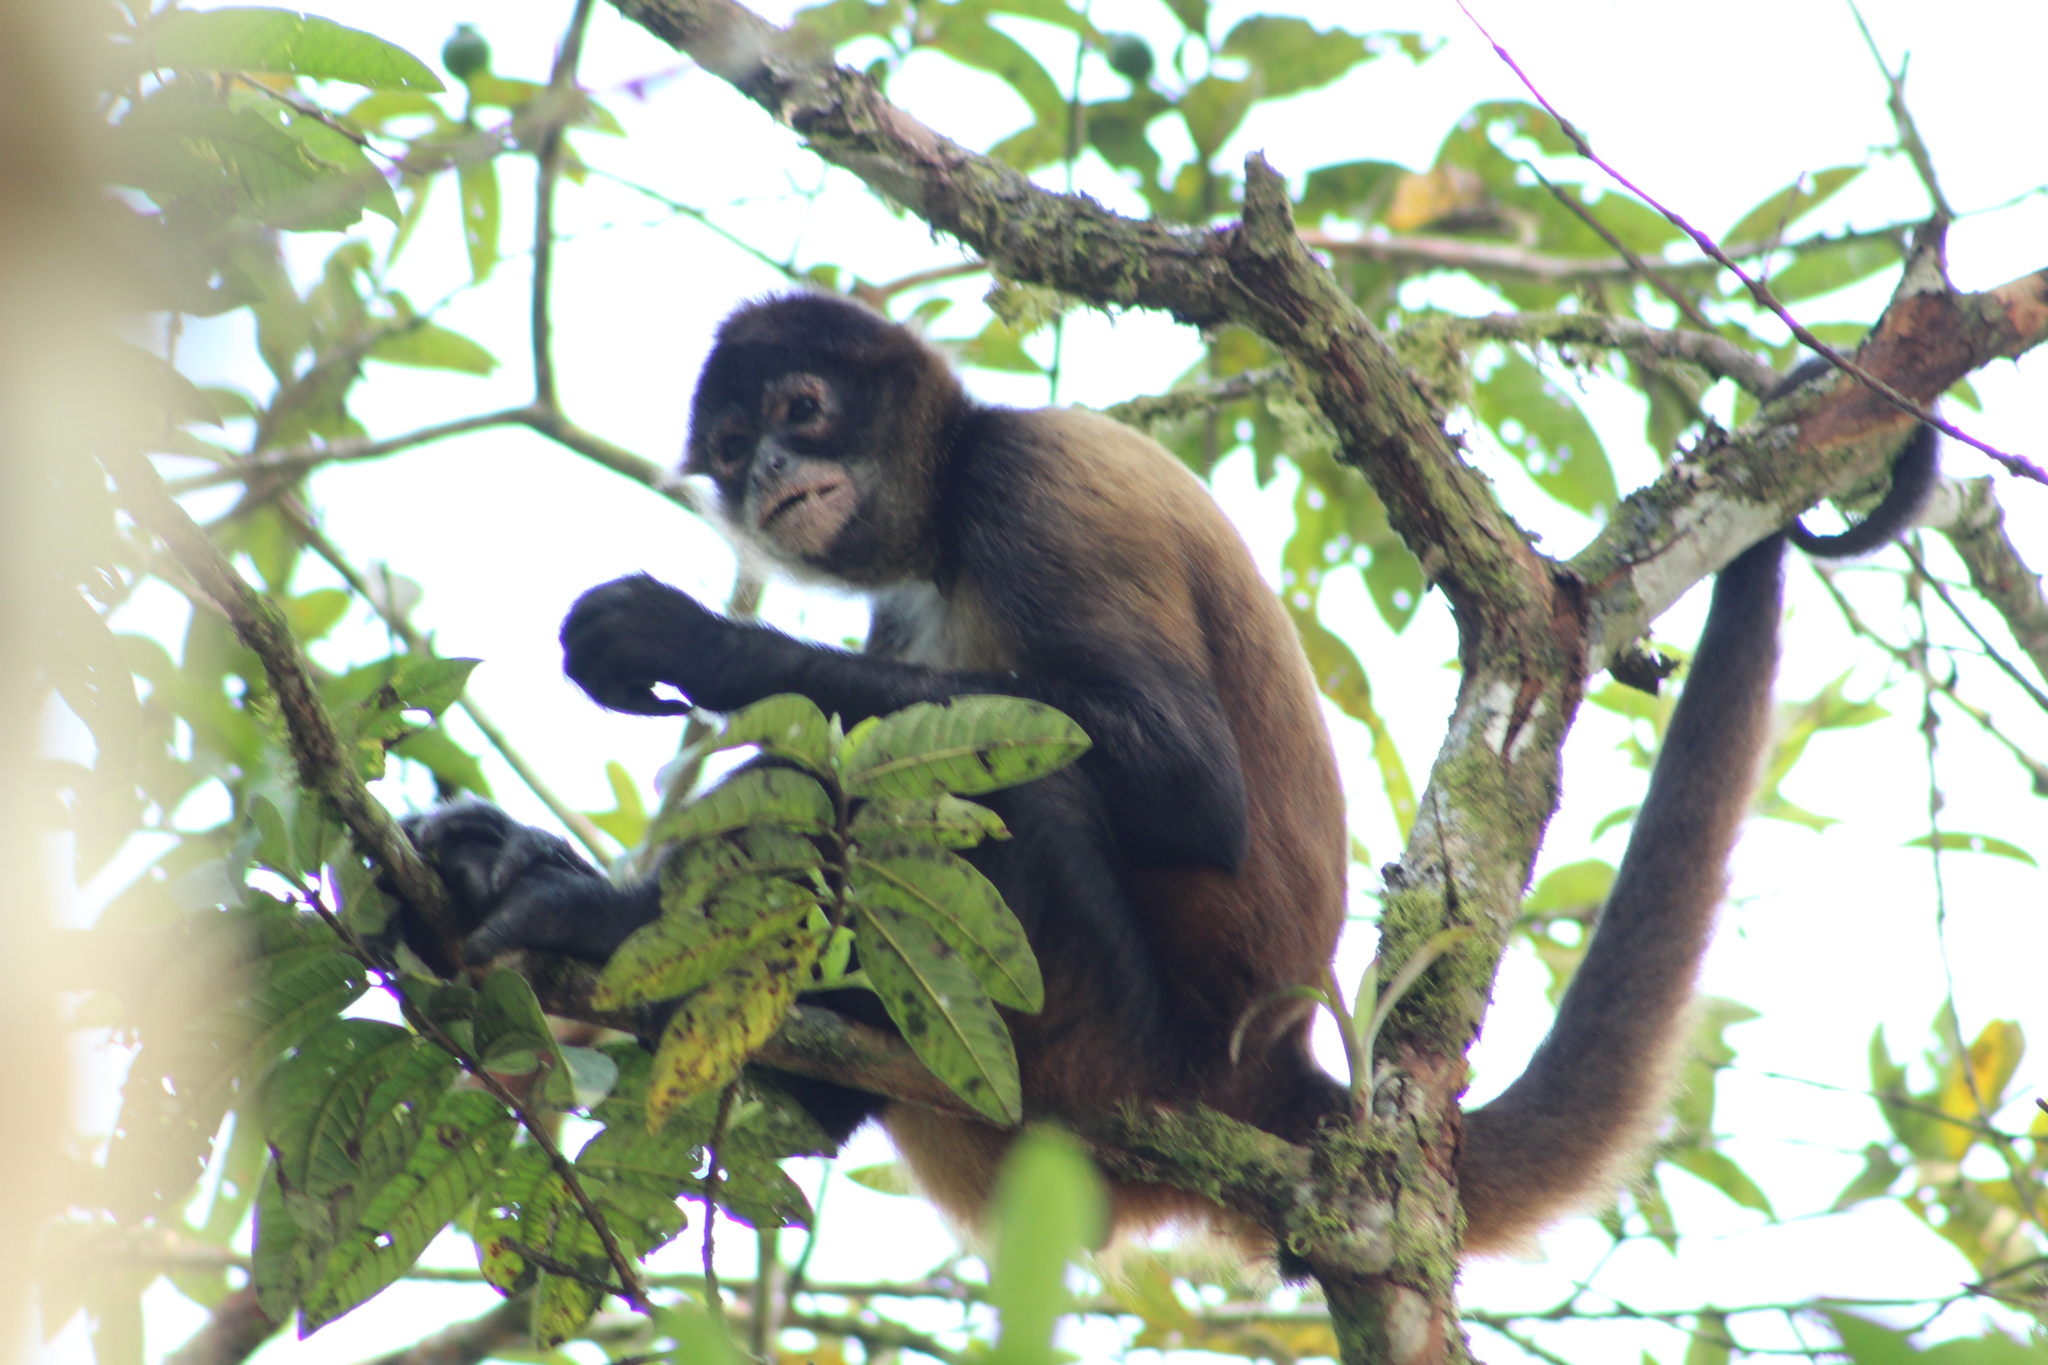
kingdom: Animalia
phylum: Chordata
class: Mammalia
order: Primates
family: Atelidae
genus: Ateles
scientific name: Ateles geoffroyi
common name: Black-handed spider monkey
